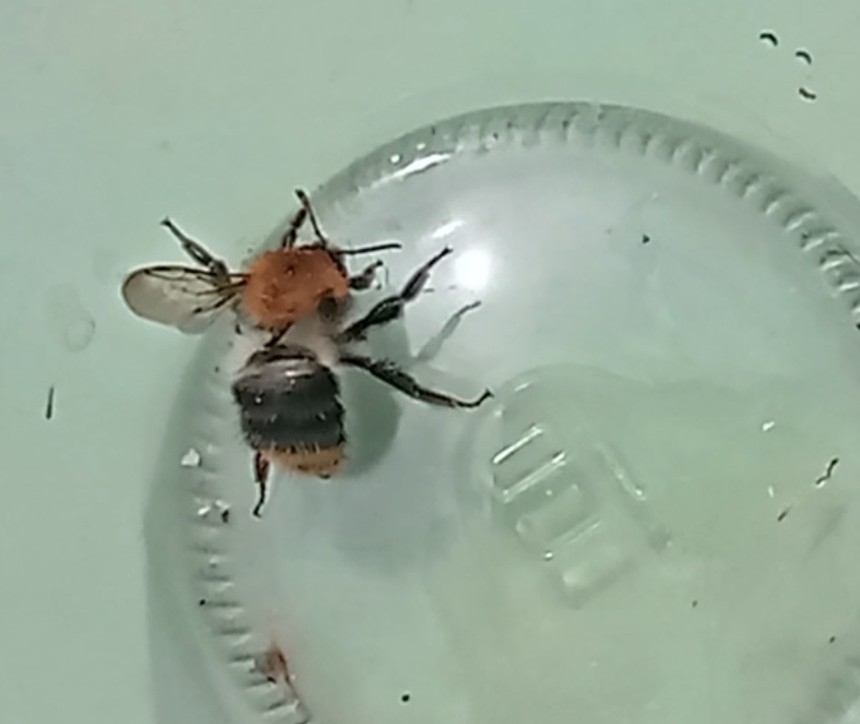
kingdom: Animalia
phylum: Arthropoda
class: Insecta
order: Hymenoptera
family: Apidae
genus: Bombus
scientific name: Bombus pascuorum
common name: Common carder bee
